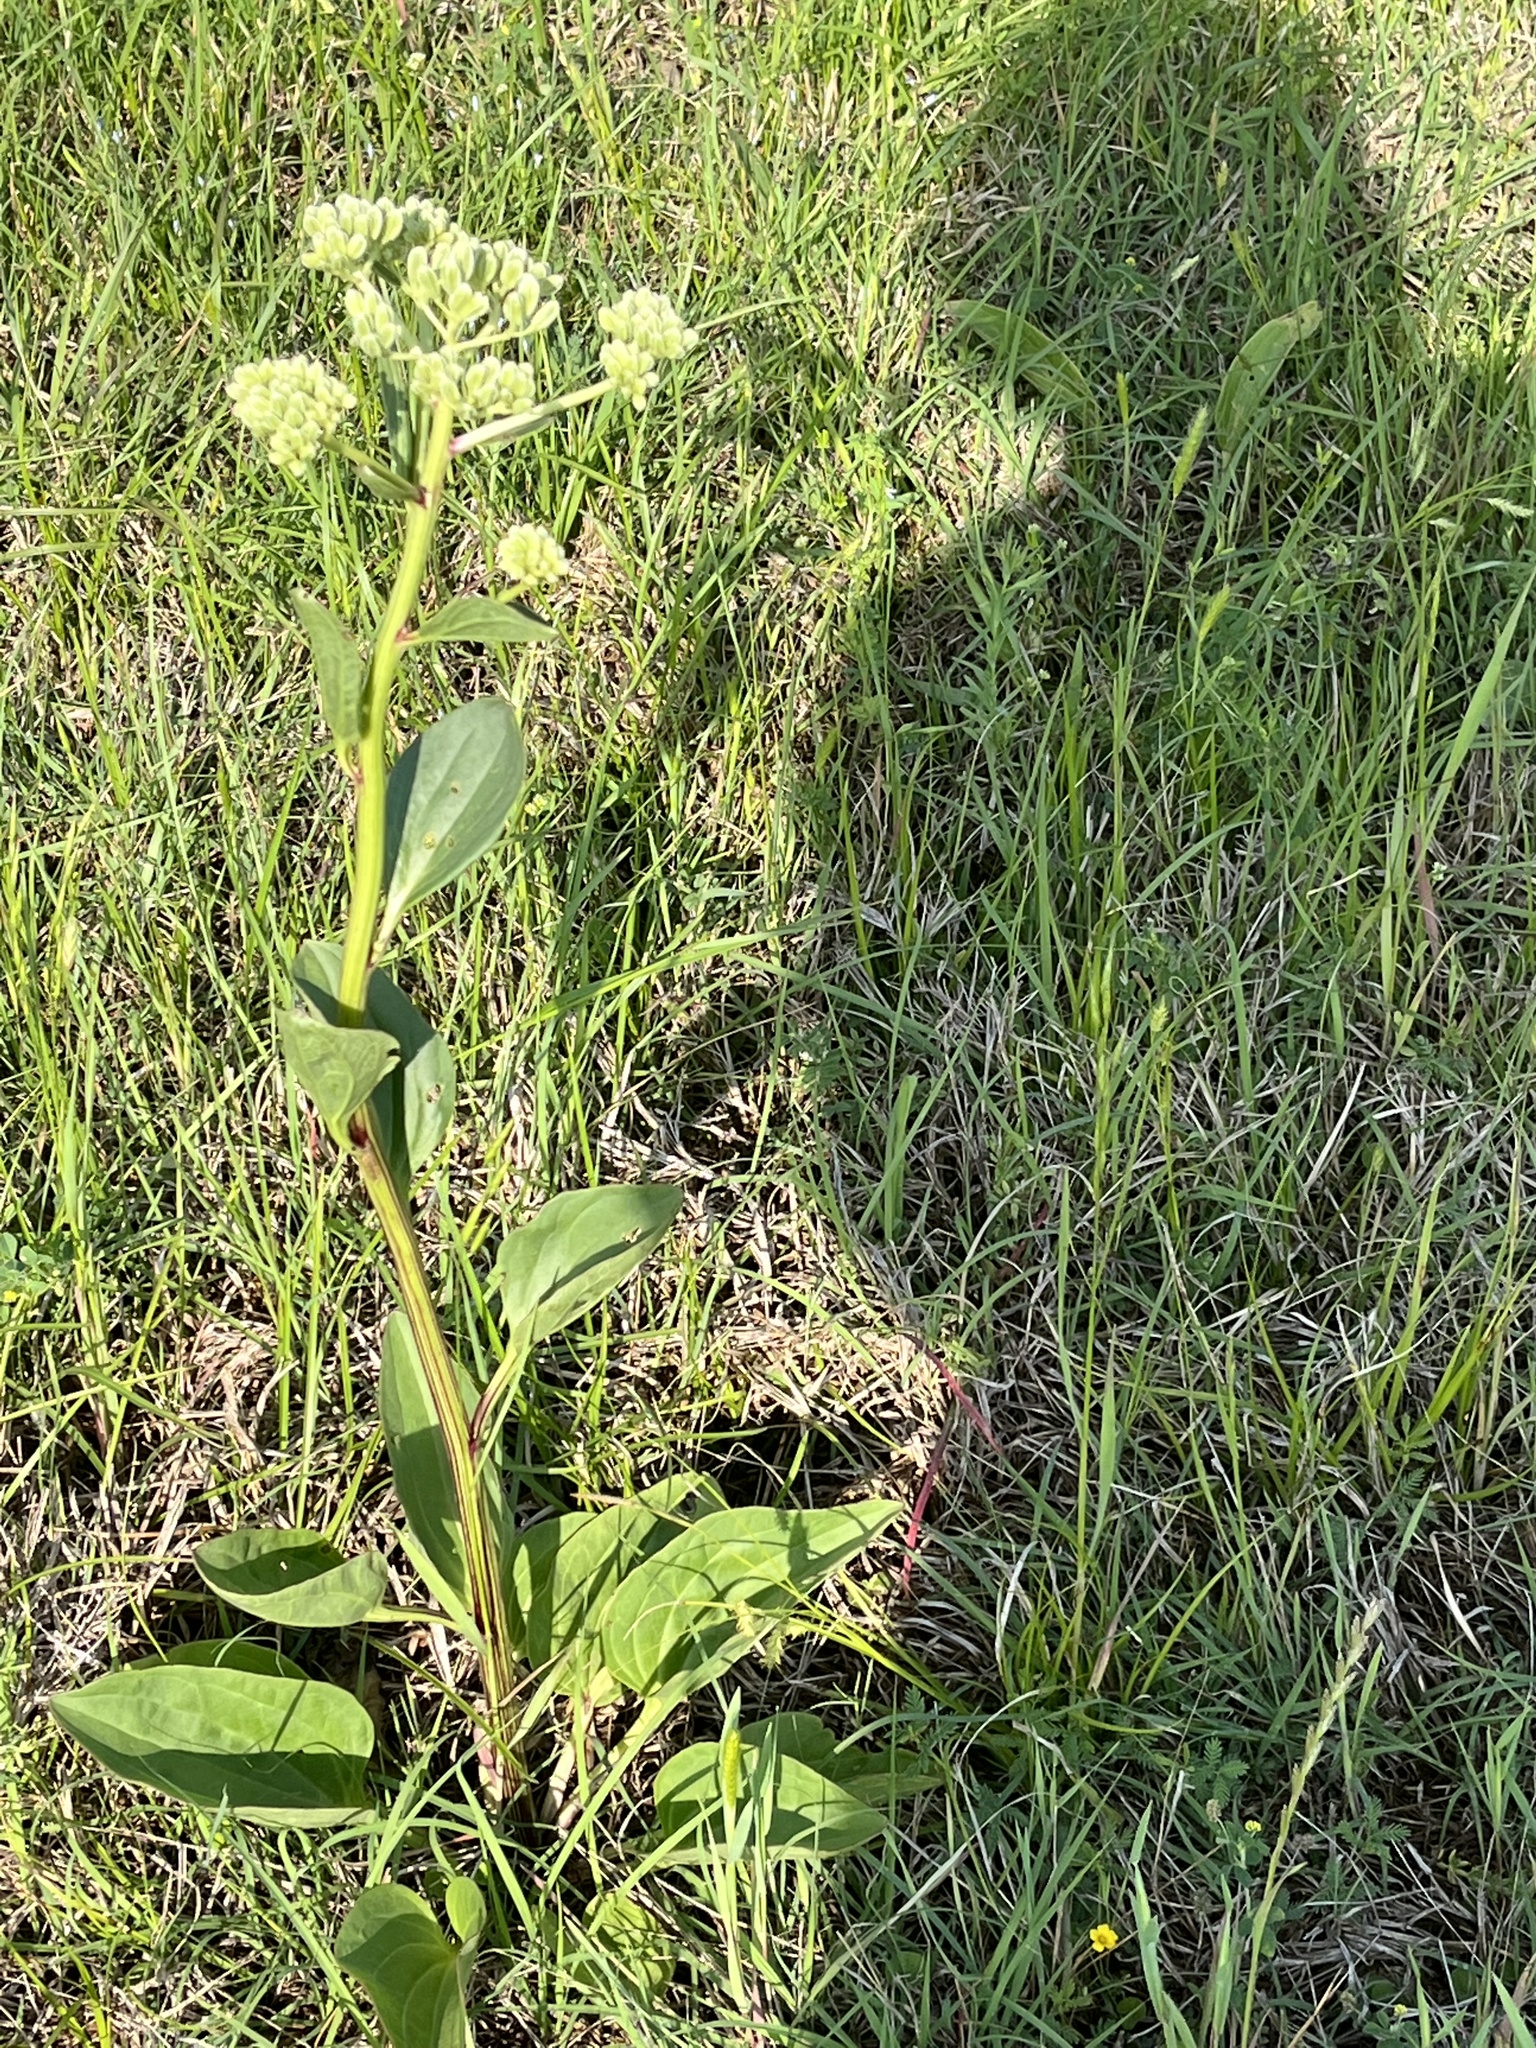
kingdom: Plantae
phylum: Tracheophyta
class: Magnoliopsida
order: Asterales
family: Asteraceae
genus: Arnoglossum
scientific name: Arnoglossum plantagineum
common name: Groove-stemmed indian-plantain
